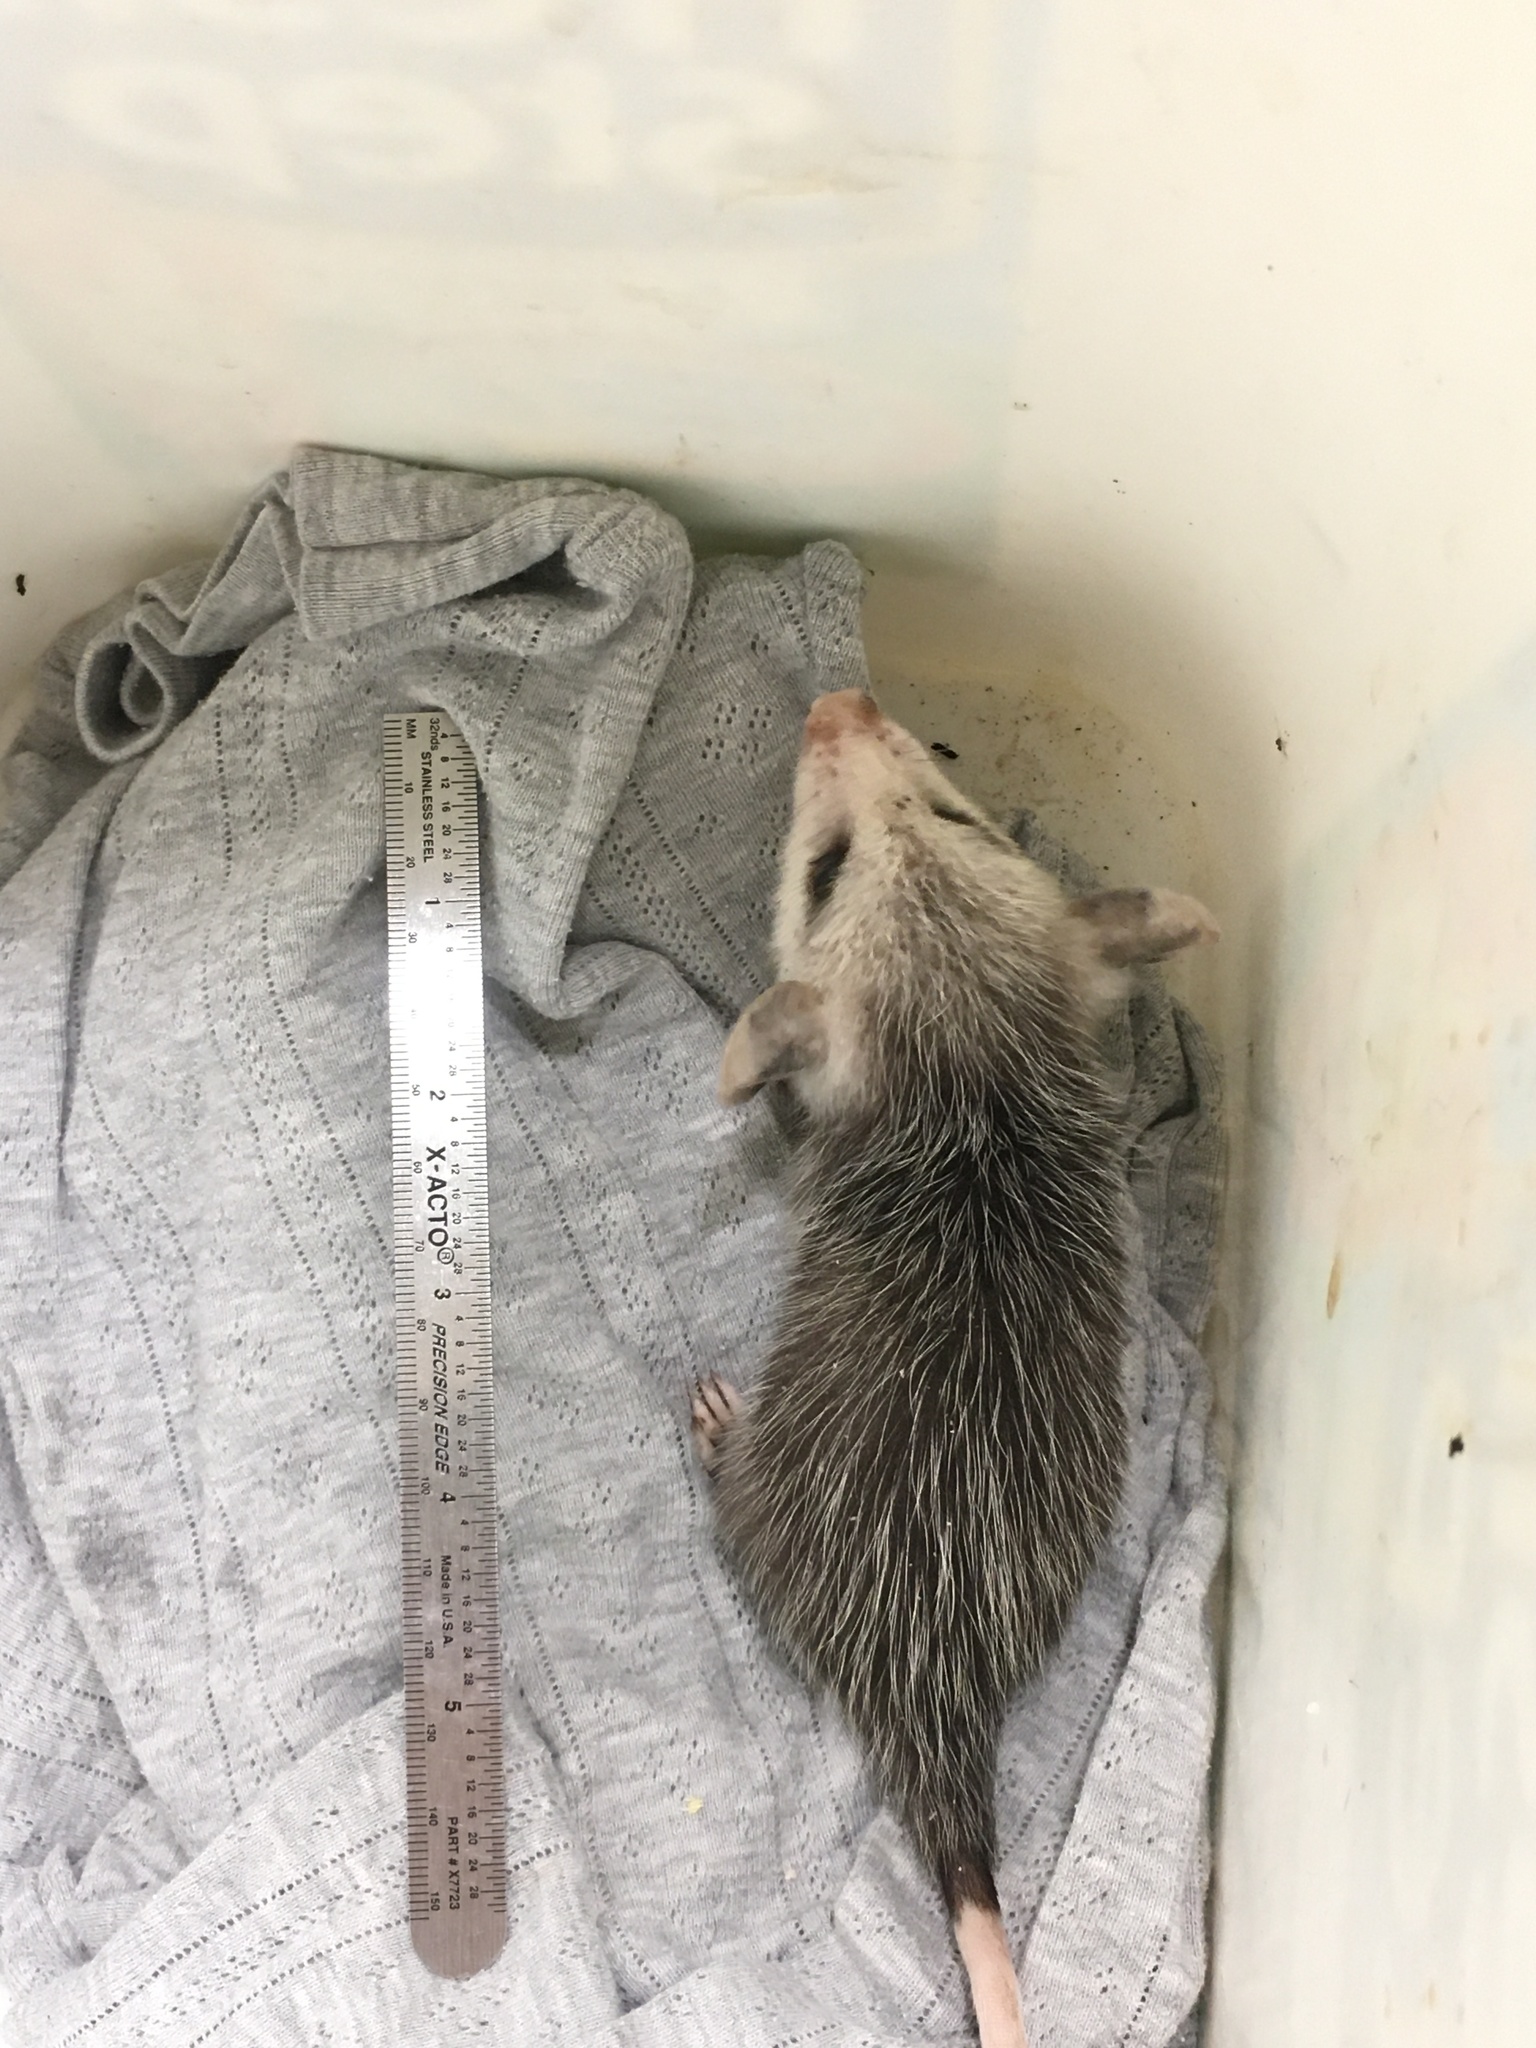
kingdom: Animalia
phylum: Chordata
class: Mammalia
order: Didelphimorphia
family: Didelphidae
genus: Didelphis
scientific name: Didelphis virginiana
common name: Virginia opossum
